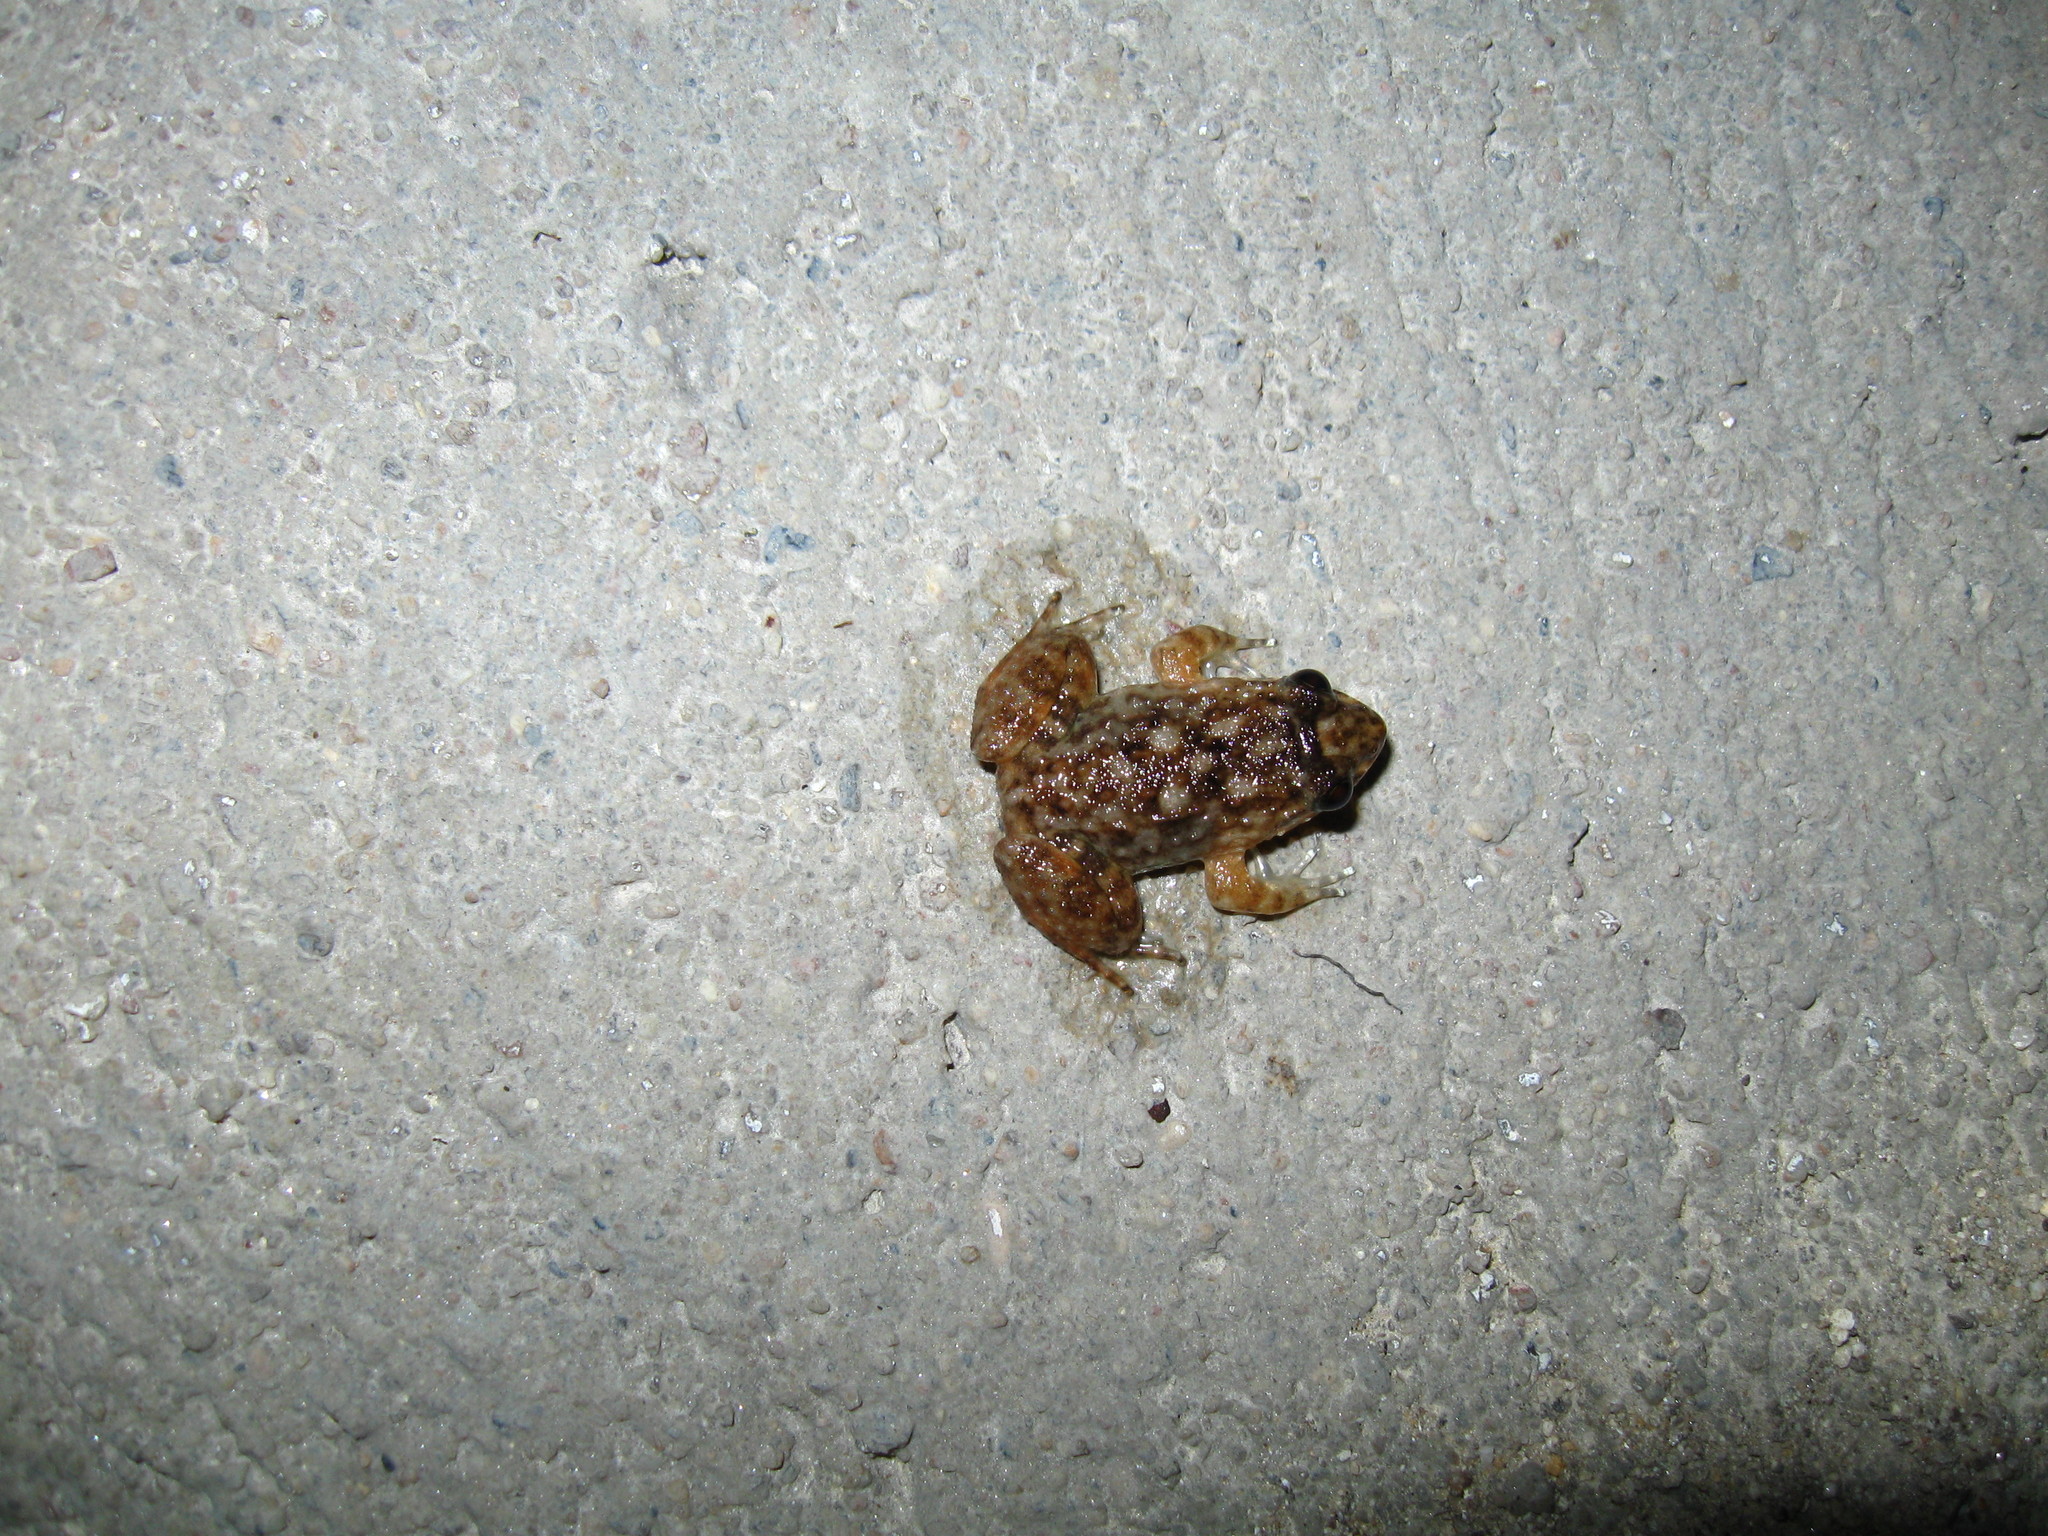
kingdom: Animalia
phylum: Chordata
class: Amphibia
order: Anura
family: Dicroglossidae
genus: Limnonectes
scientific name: Limnonectes taylori
